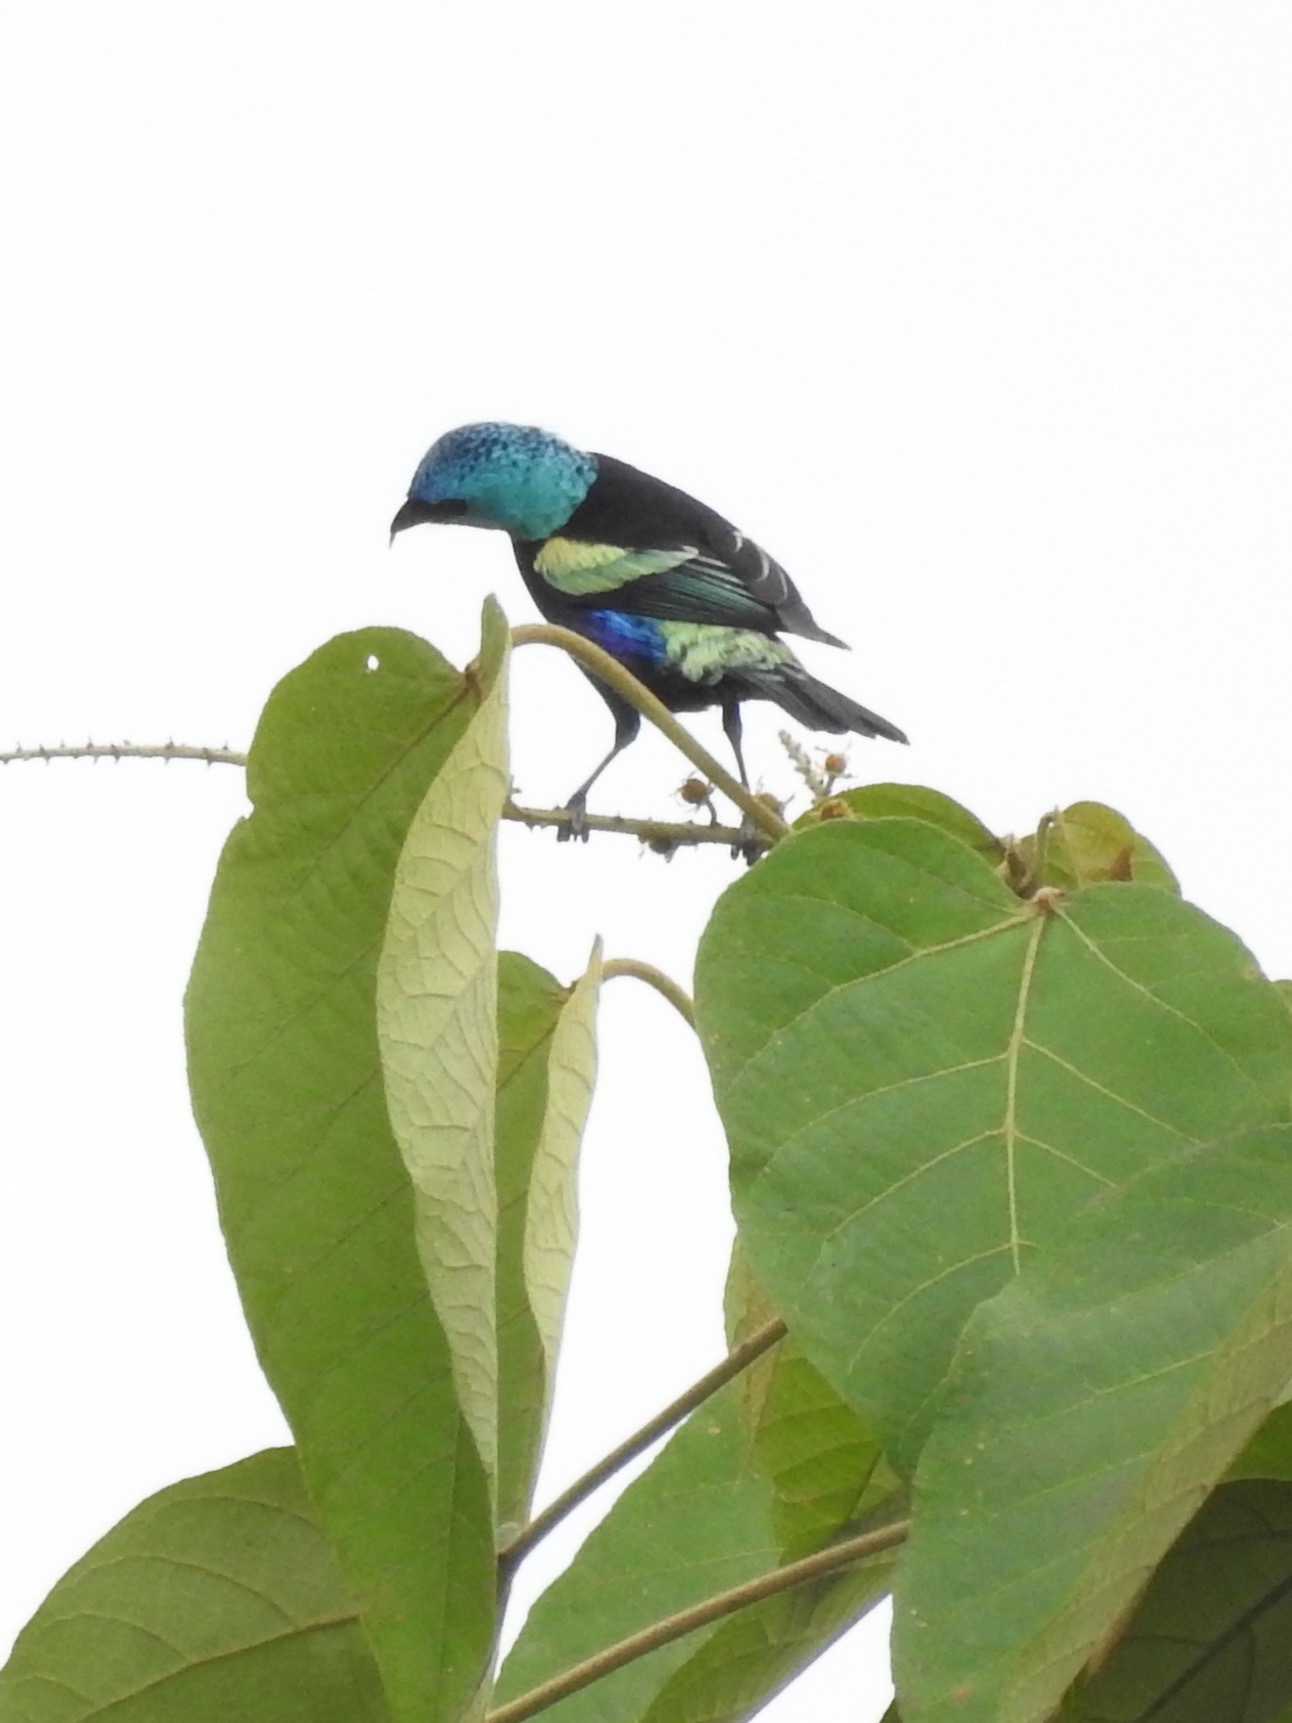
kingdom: Animalia
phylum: Chordata
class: Aves
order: Passeriformes
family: Thraupidae
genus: Stilpnia
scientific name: Stilpnia cyanicollis
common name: Blue-necked tanager
